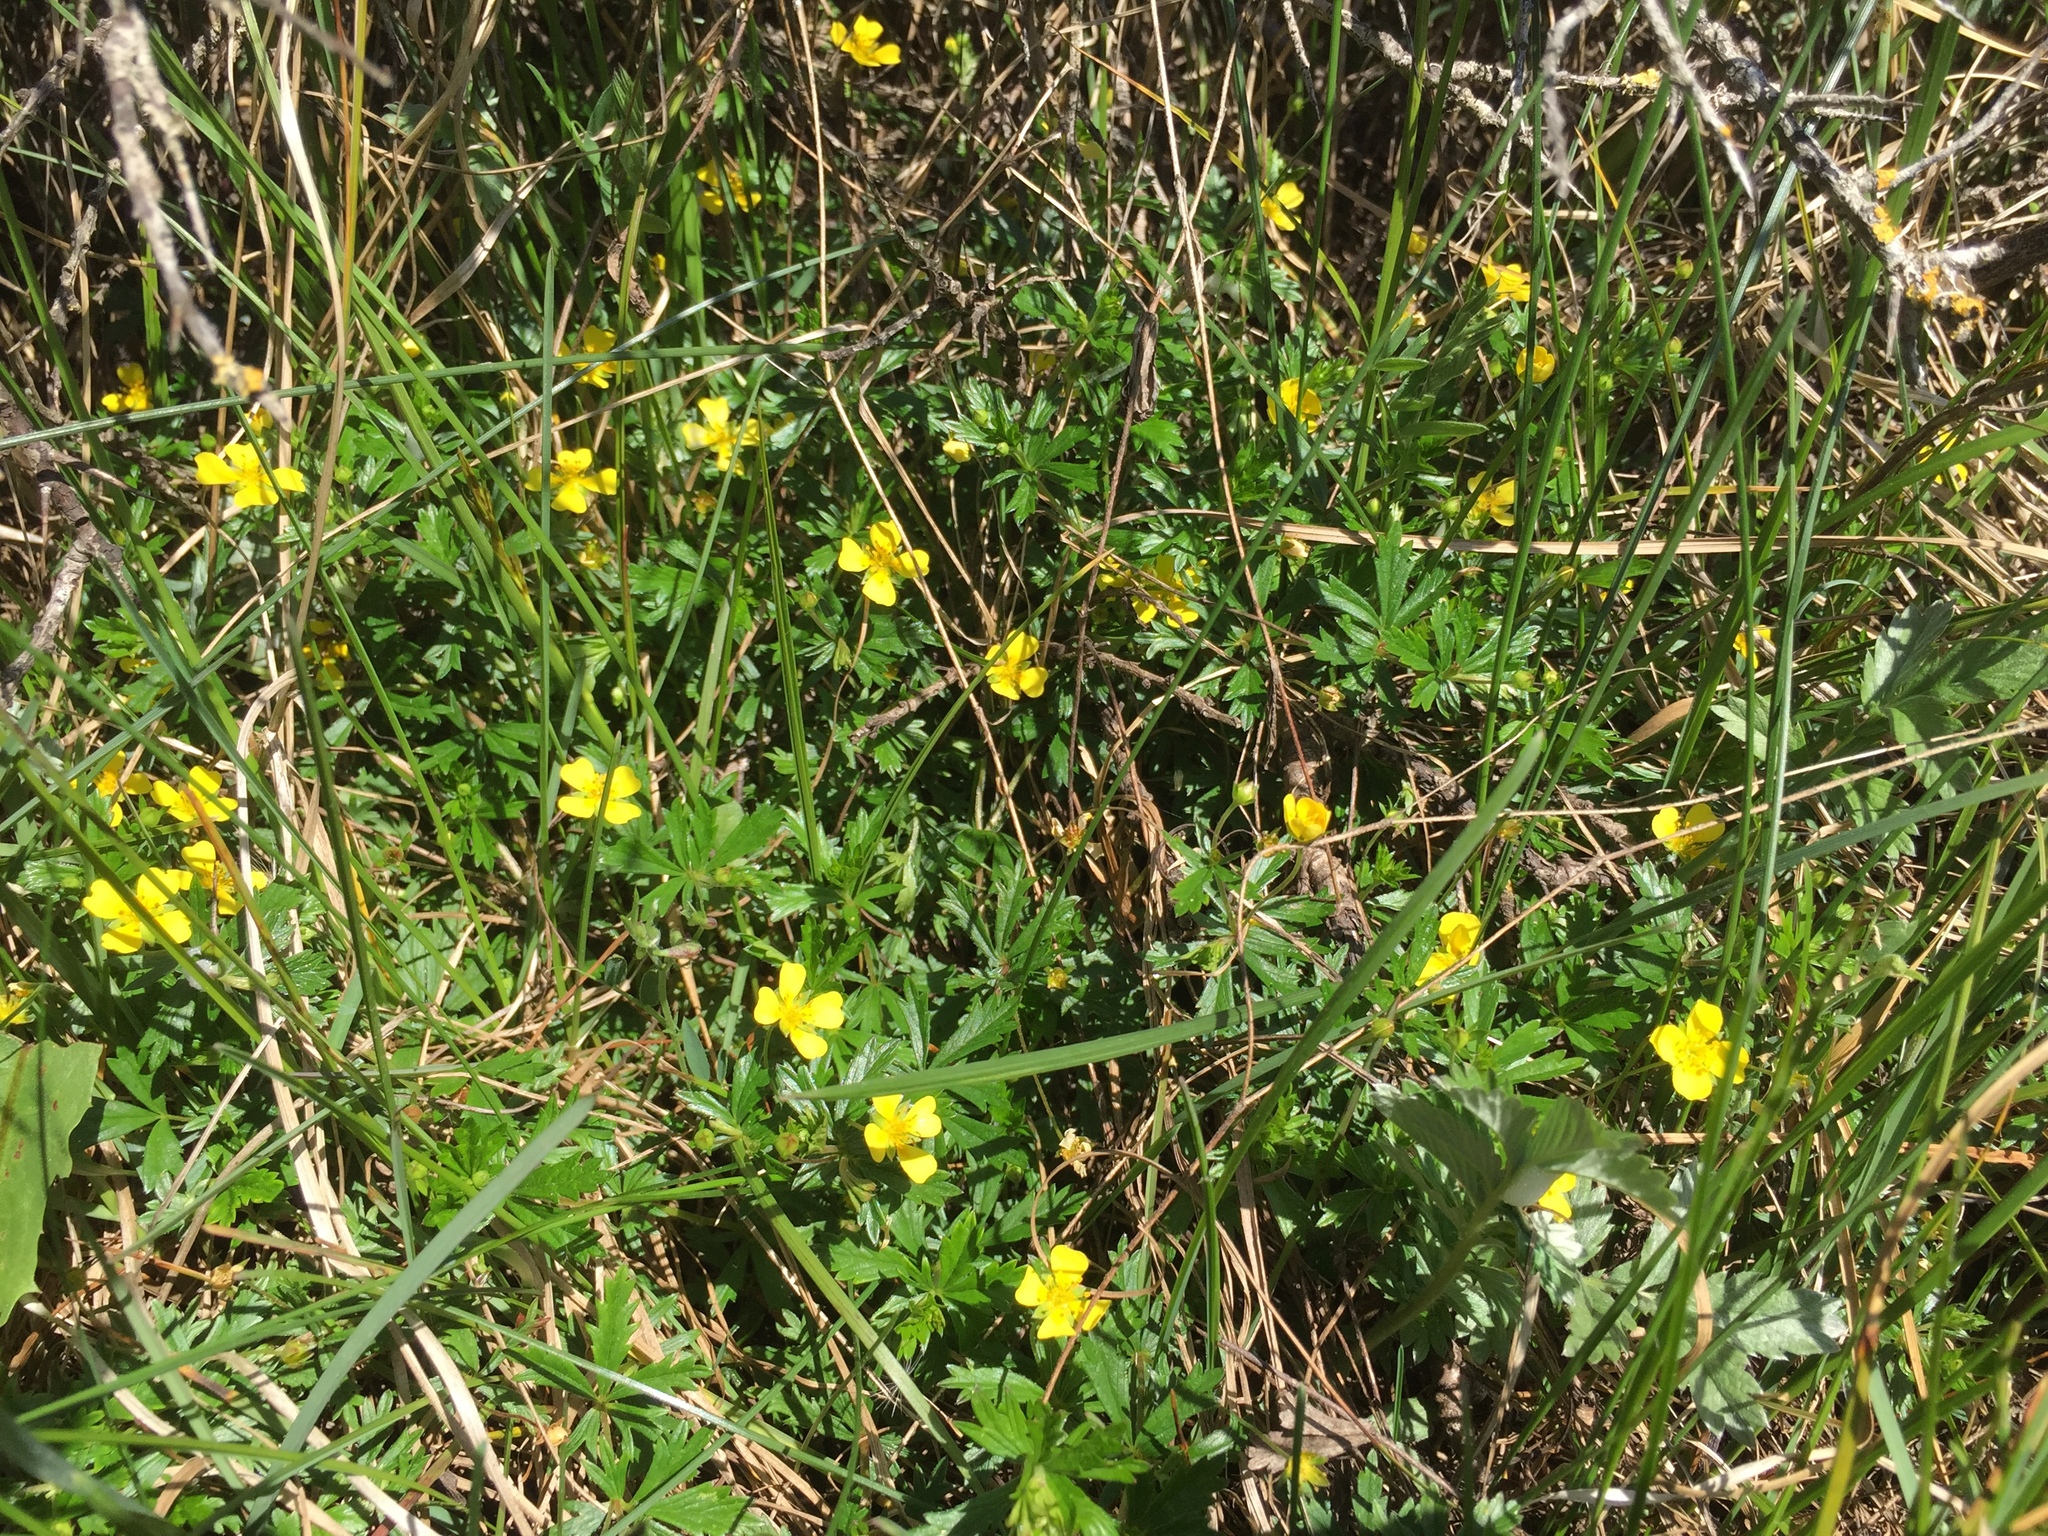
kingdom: Plantae
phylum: Tracheophyta
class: Magnoliopsida
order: Rosales
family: Rosaceae
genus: Potentilla
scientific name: Potentilla erecta
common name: Tormentil
